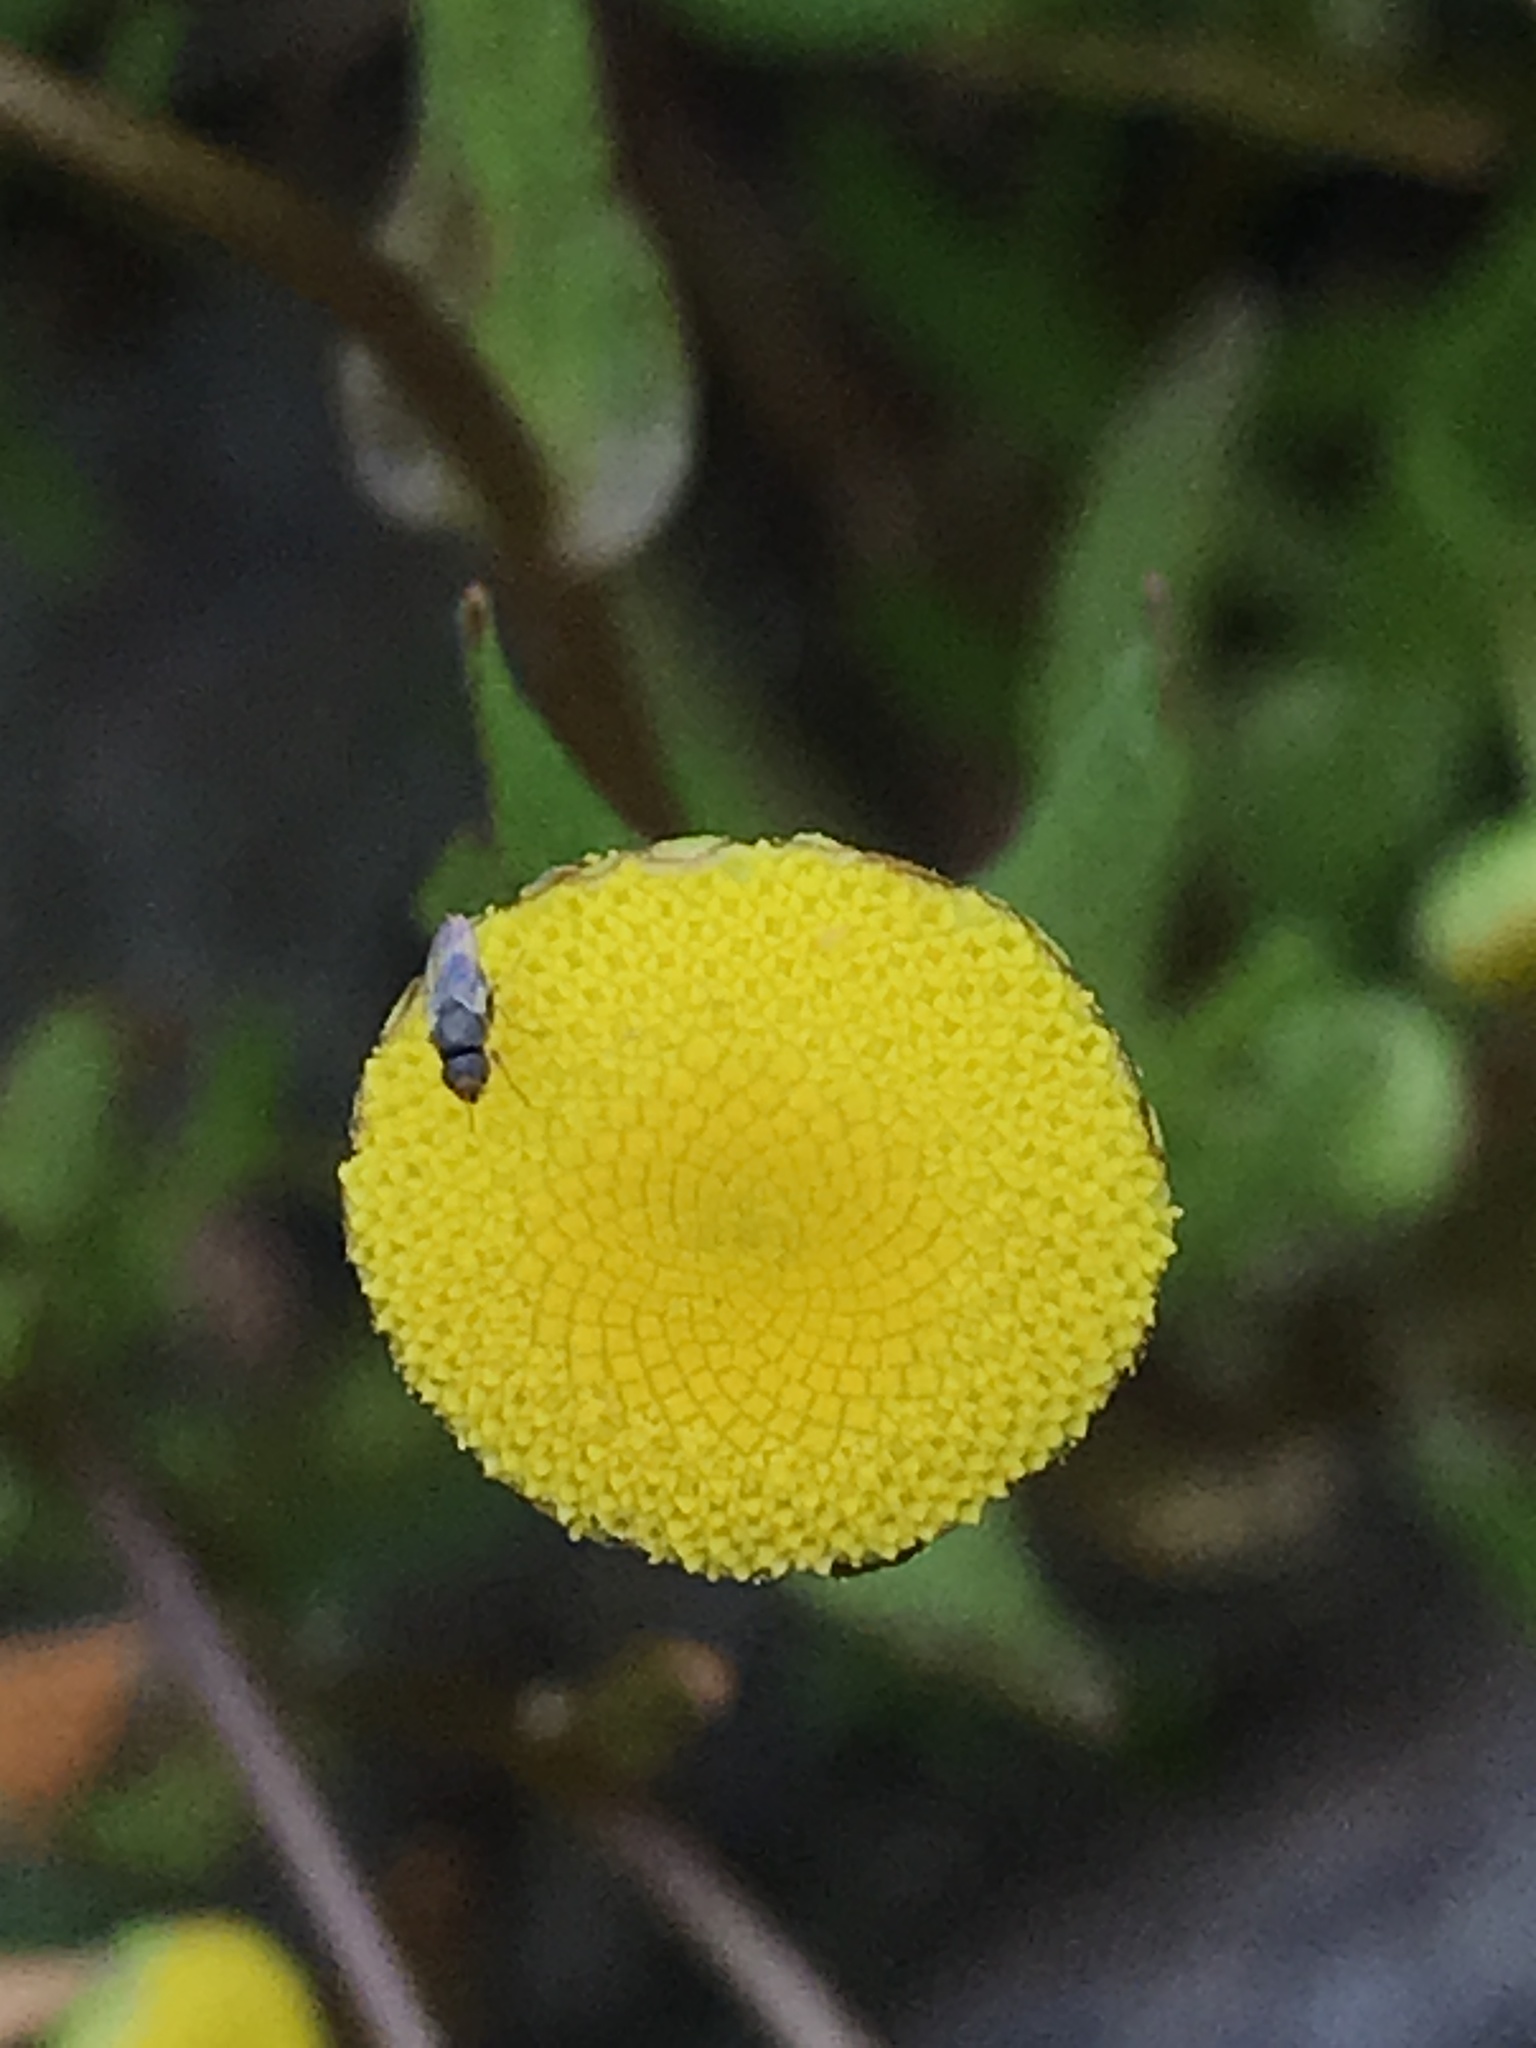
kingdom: Plantae
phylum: Tracheophyta
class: Magnoliopsida
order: Asterales
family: Asteraceae
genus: Cotula
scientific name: Cotula coronopifolia
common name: Buttonweed
